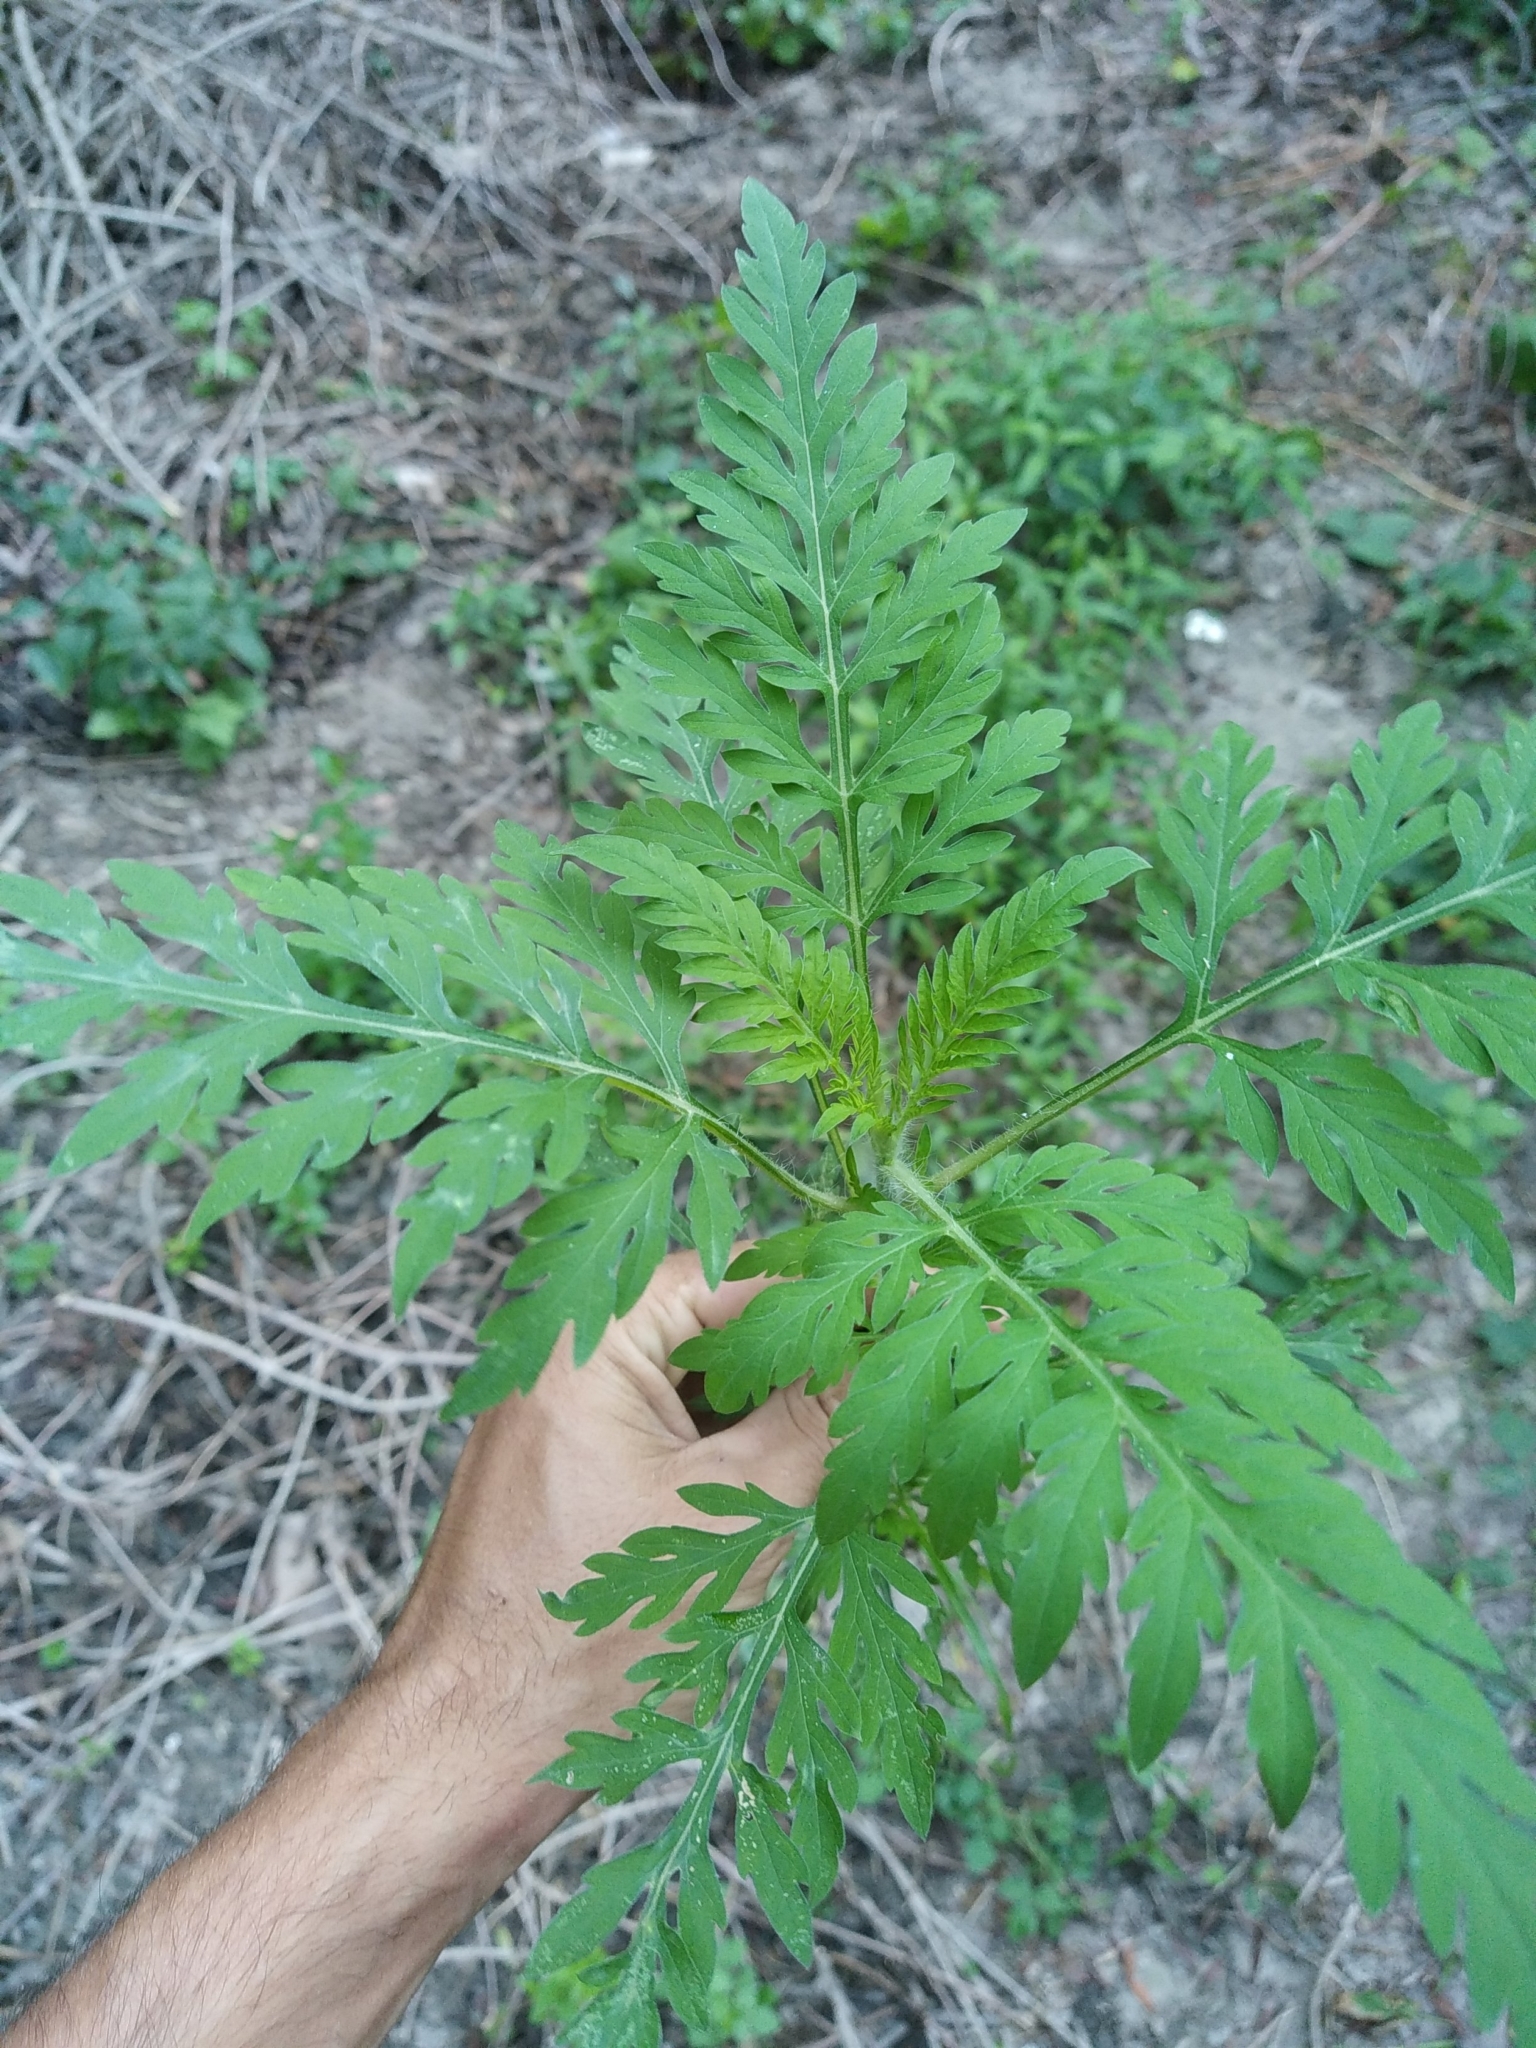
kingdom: Plantae
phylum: Tracheophyta
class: Magnoliopsida
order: Asterales
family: Asteraceae
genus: Ambrosia
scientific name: Ambrosia artemisiifolia
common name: Annual ragweed
